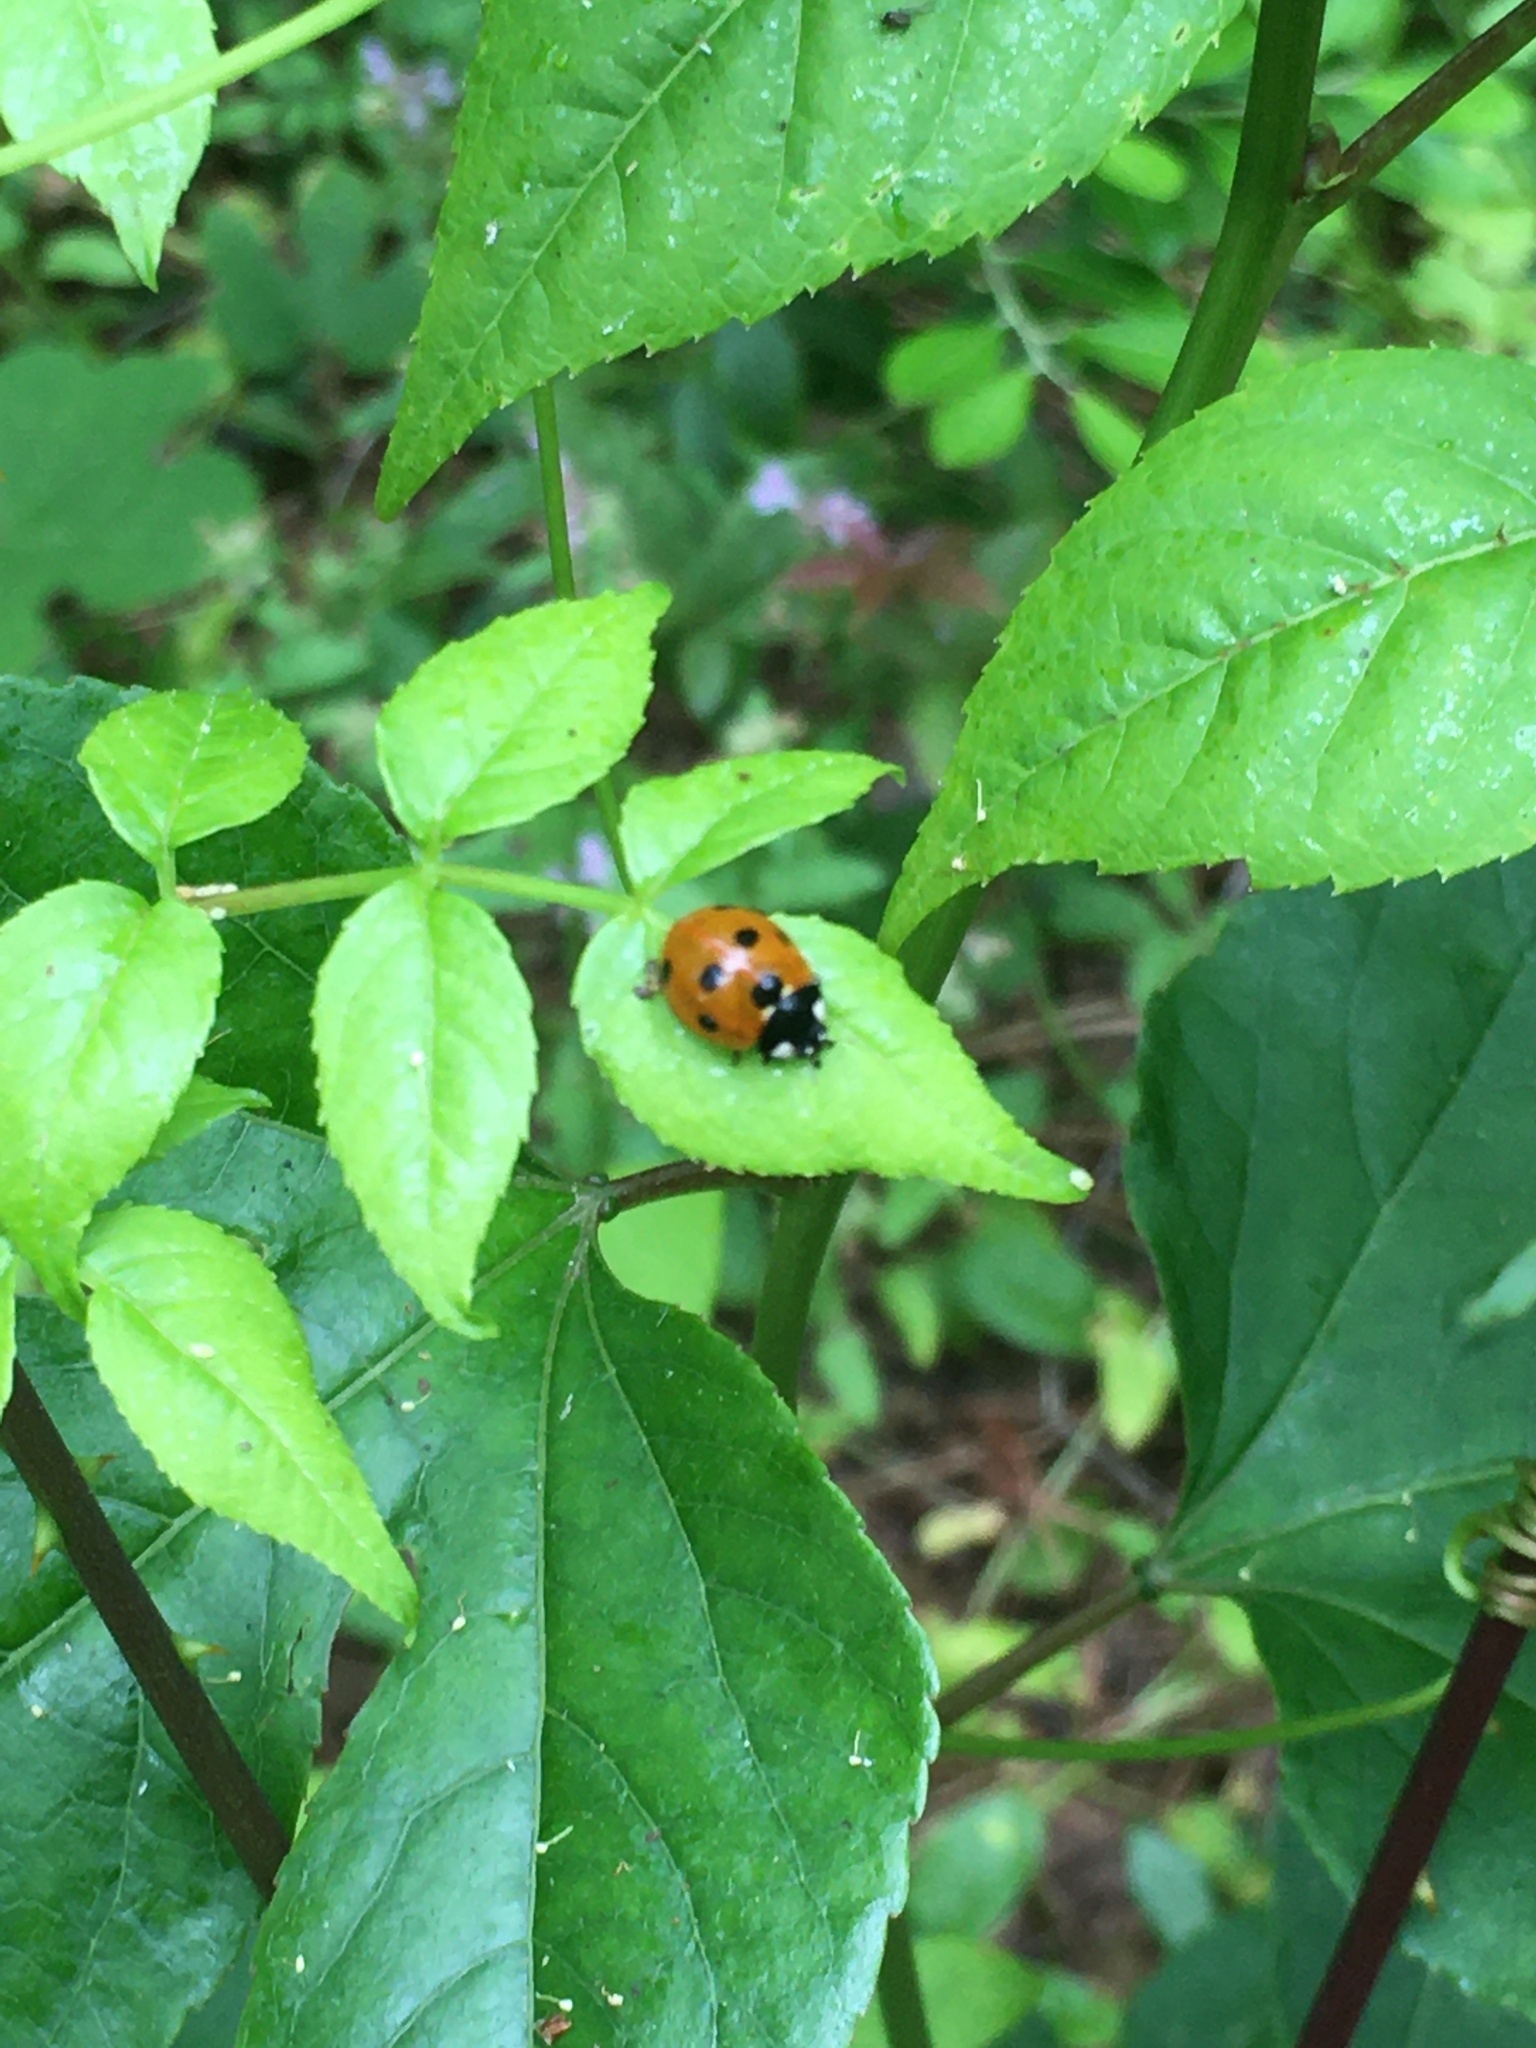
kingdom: Animalia
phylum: Arthropoda
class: Insecta
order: Coleoptera
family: Coccinellidae
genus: Coccinella
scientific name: Coccinella septempunctata
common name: Sevenspotted lady beetle
